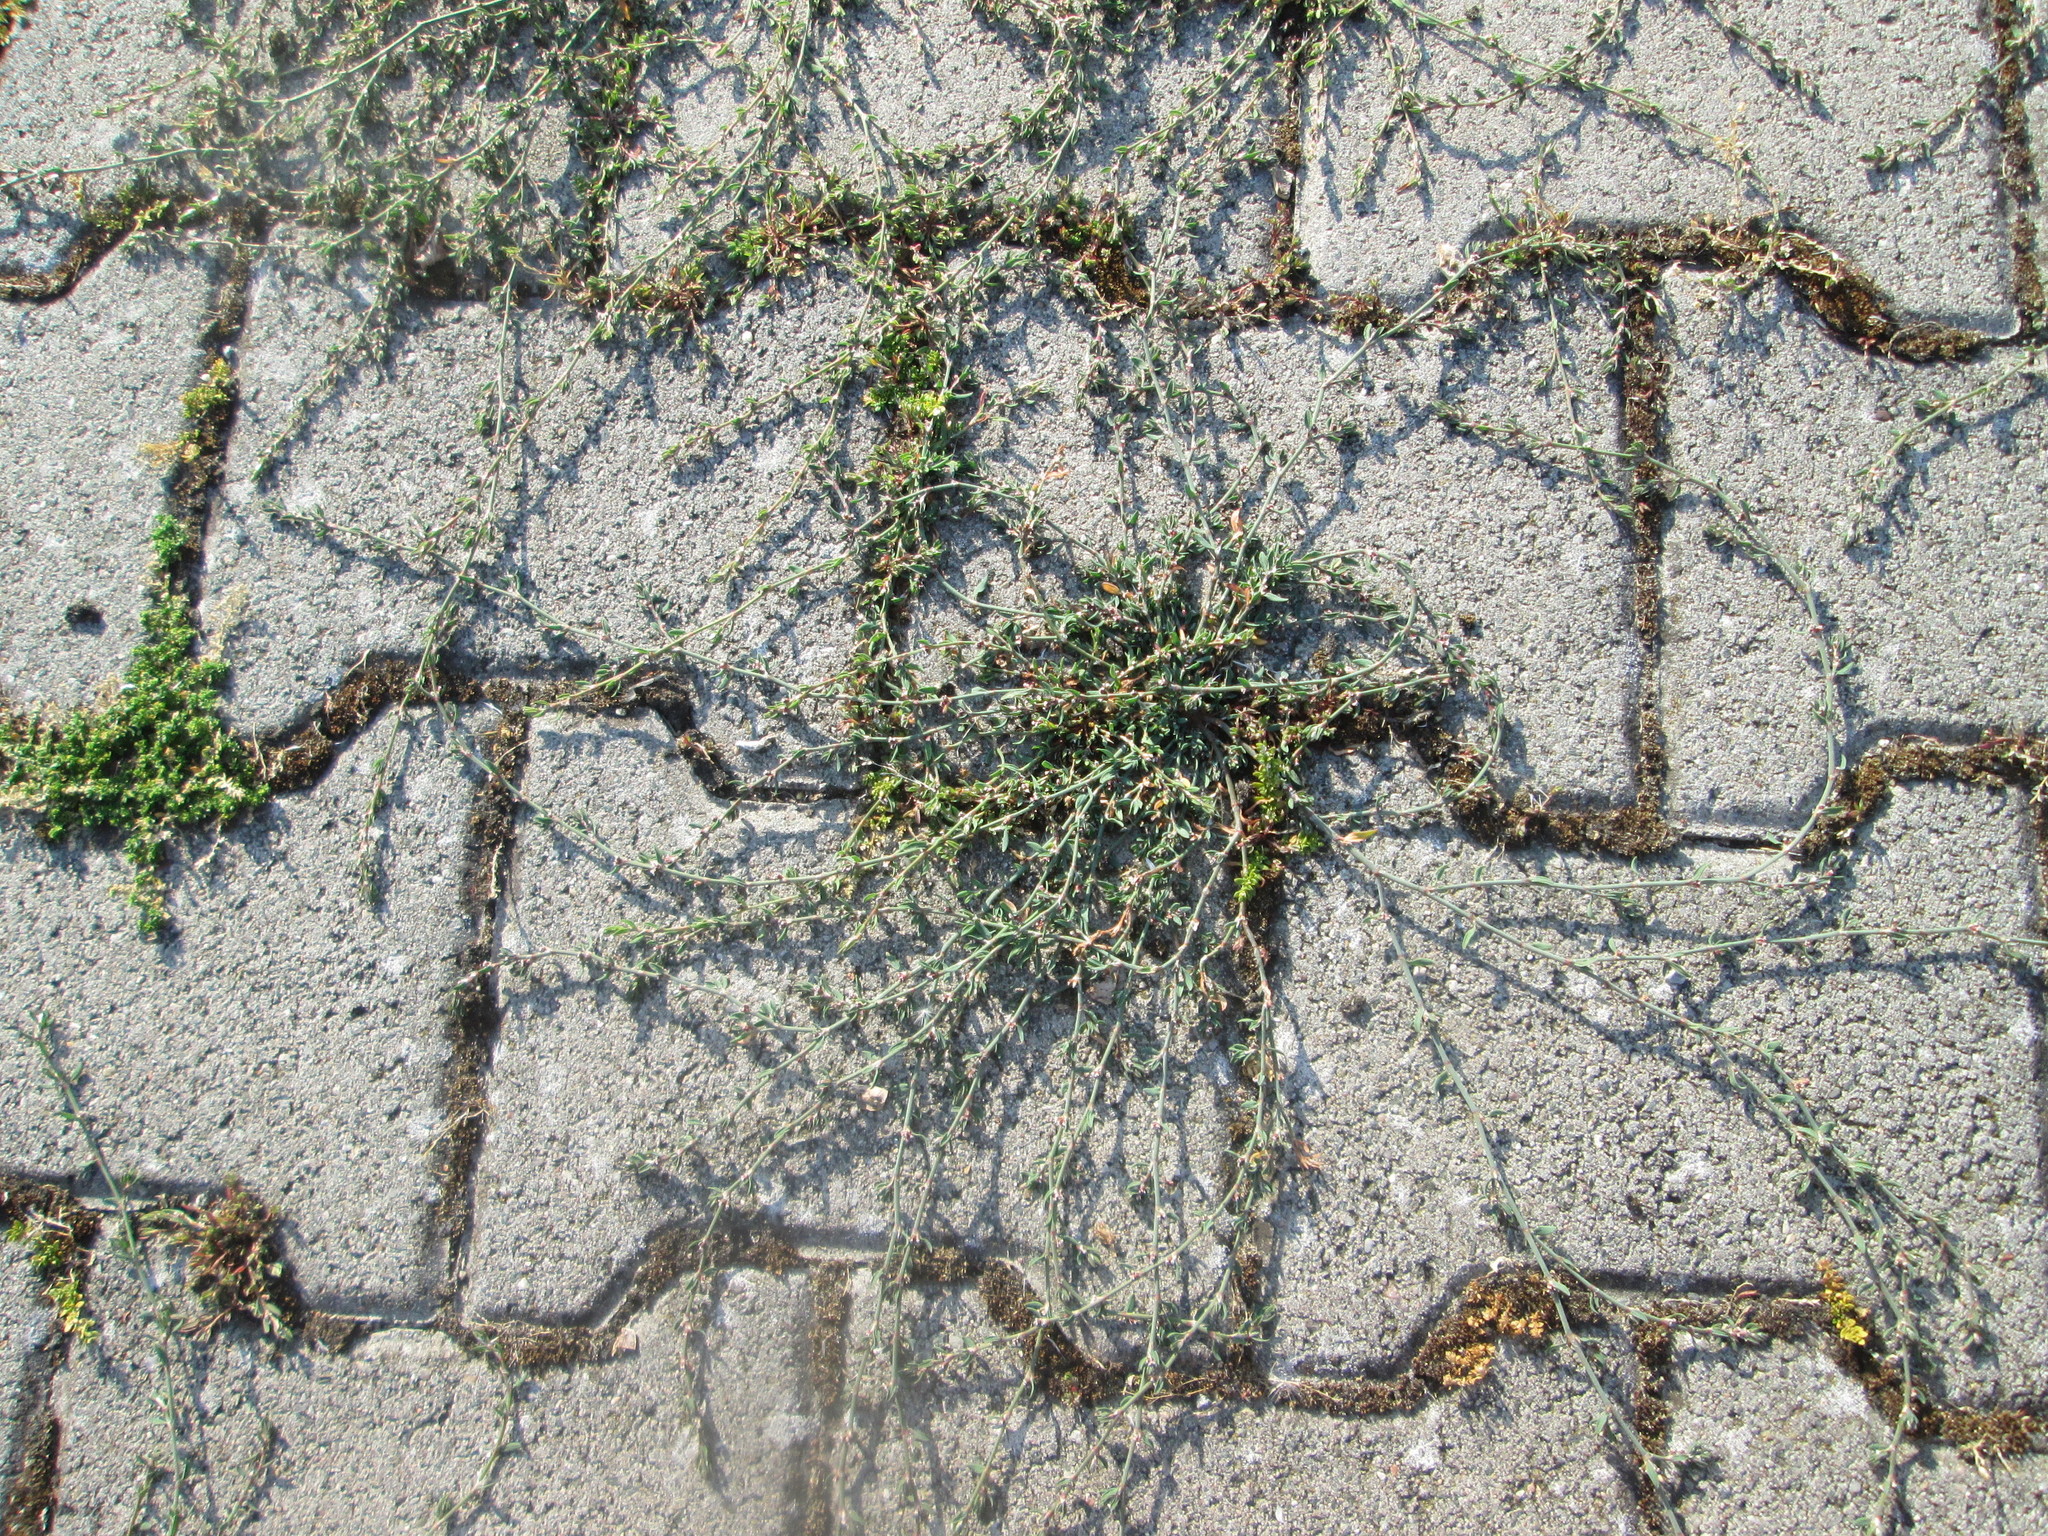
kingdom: Plantae
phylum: Tracheophyta
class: Magnoliopsida
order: Caryophyllales
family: Polygonaceae
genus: Polygonum
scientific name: Polygonum aviculare
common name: Prostrate knotweed
